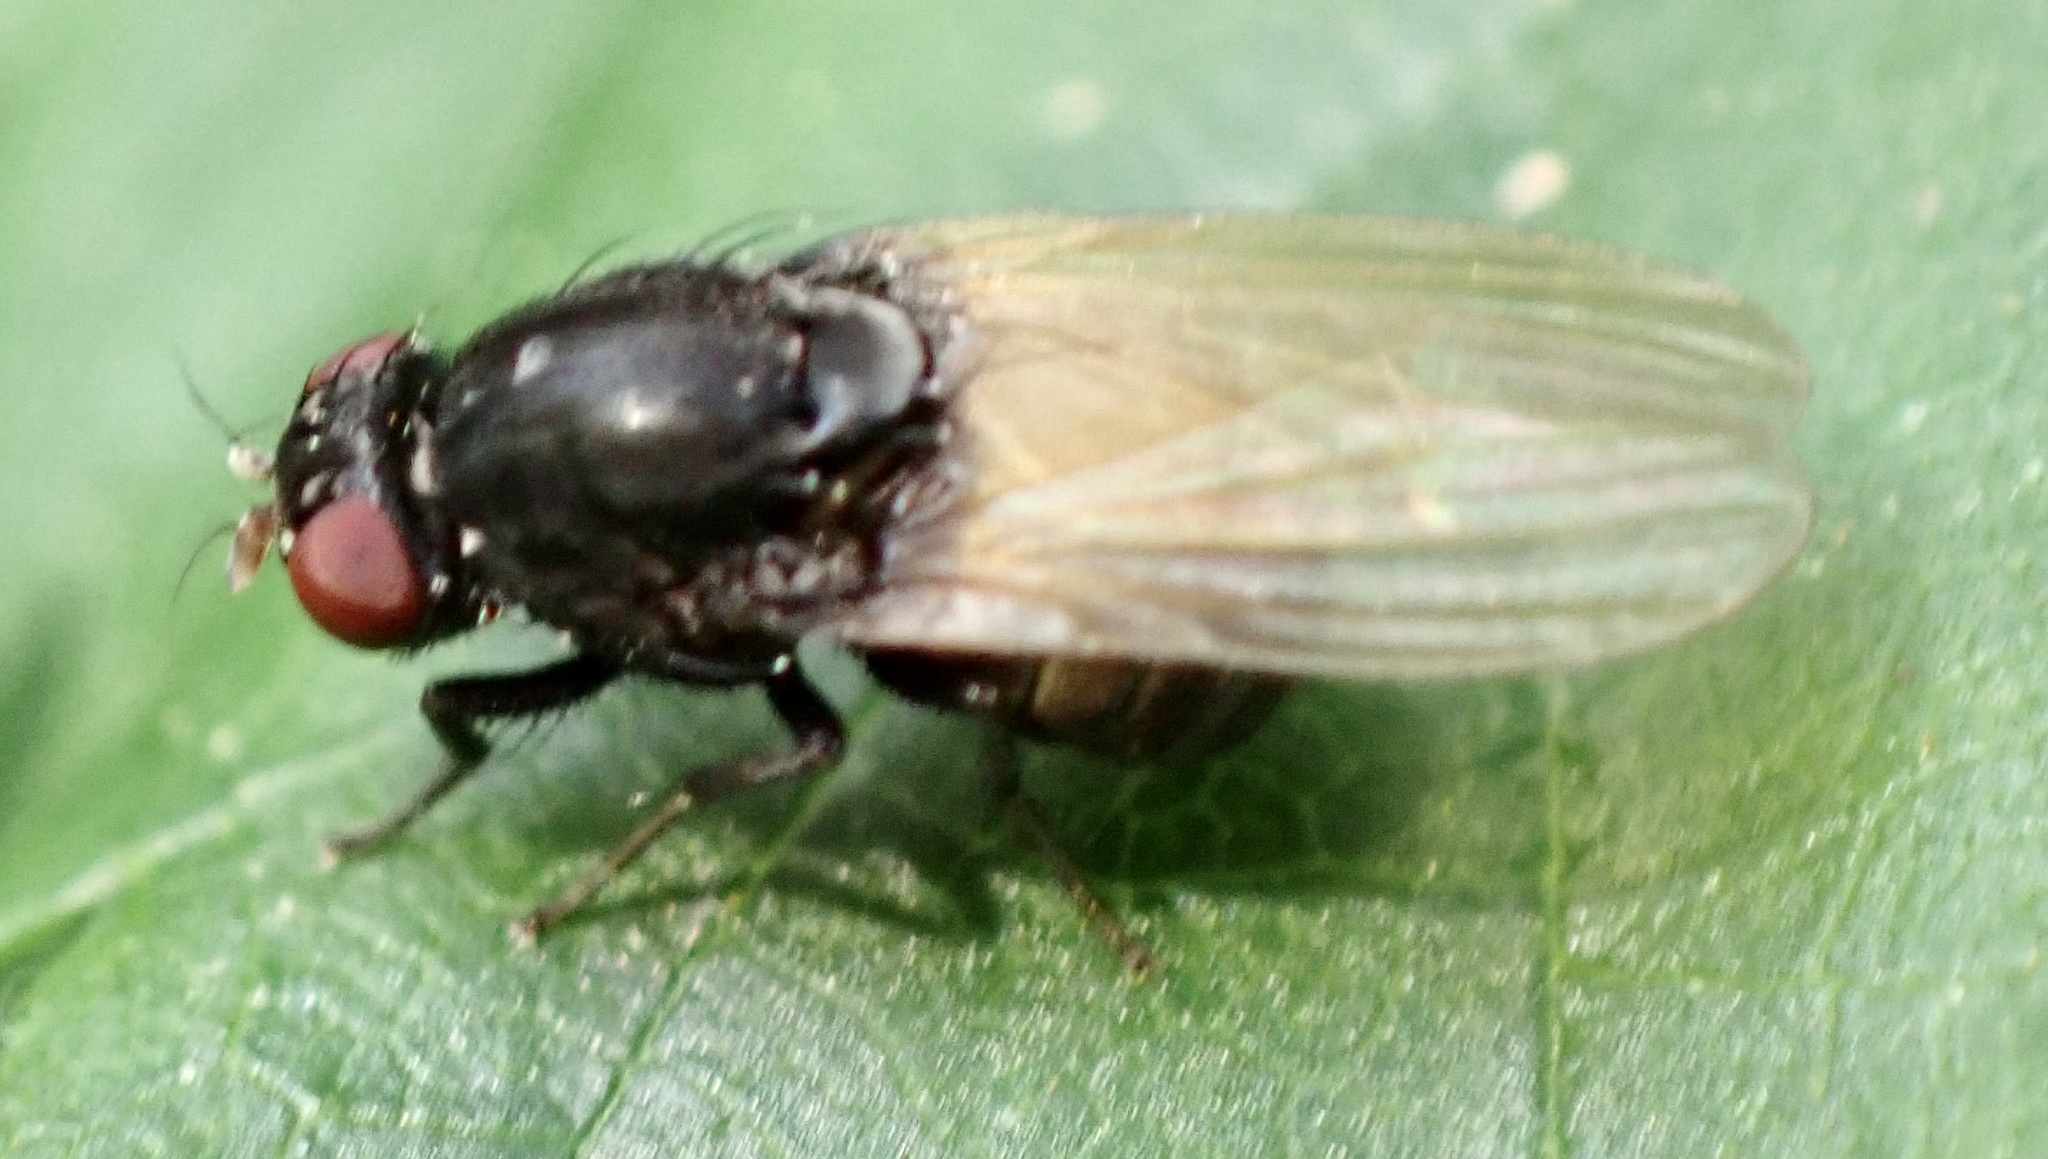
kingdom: Animalia
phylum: Arthropoda
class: Insecta
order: Diptera
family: Lauxaniidae
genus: Minettia
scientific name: Minettia longipennis
